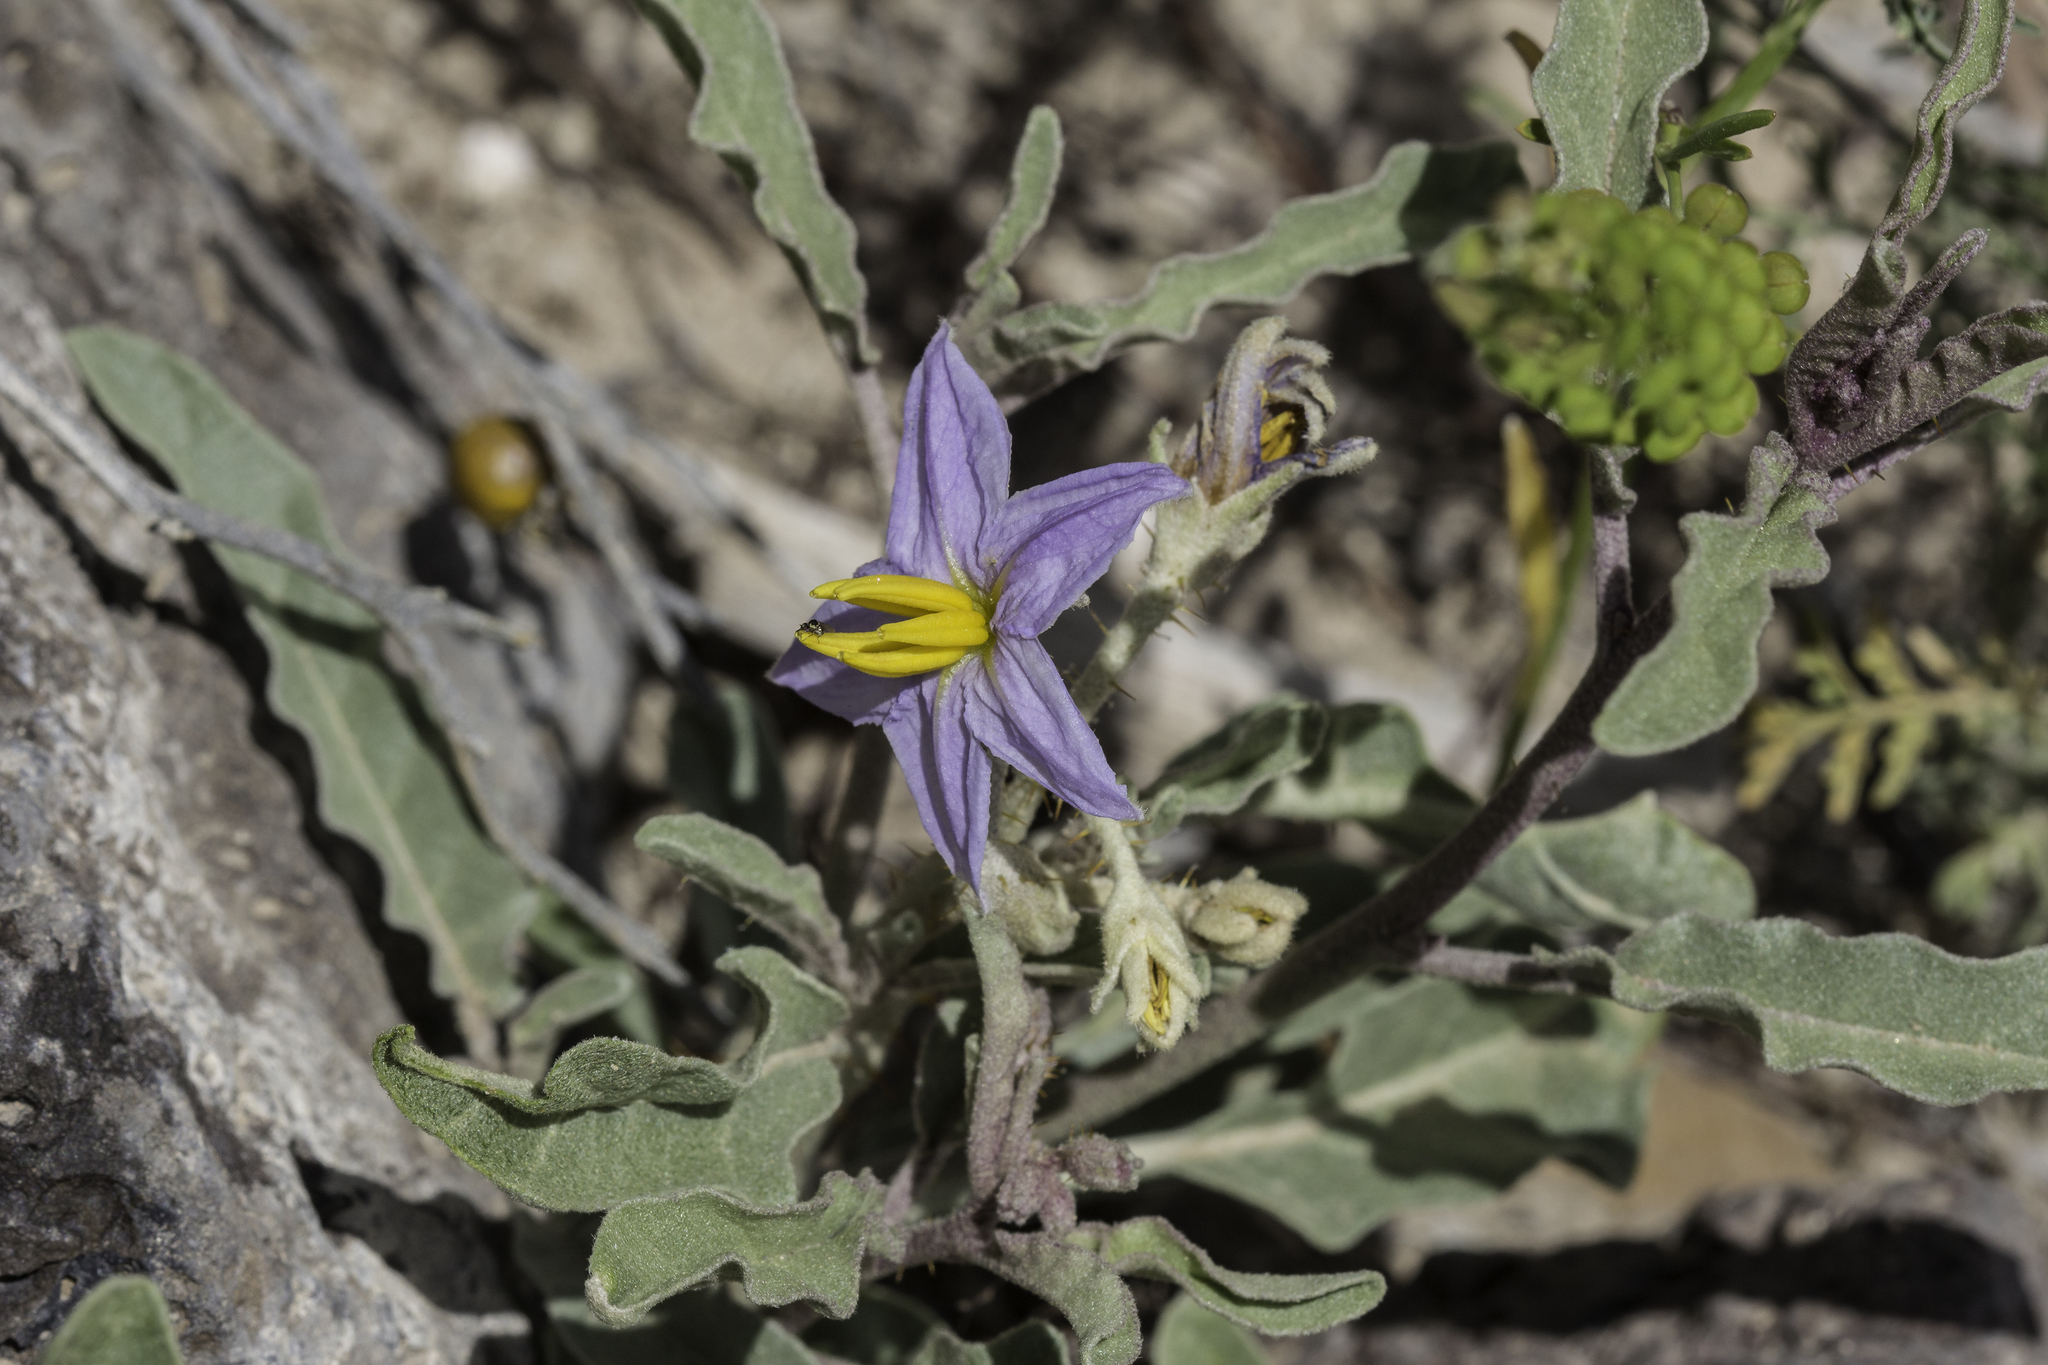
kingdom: Plantae
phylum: Tracheophyta
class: Magnoliopsida
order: Solanales
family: Solanaceae
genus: Solanum
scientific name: Solanum elaeagnifolium
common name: Silverleaf nightshade
